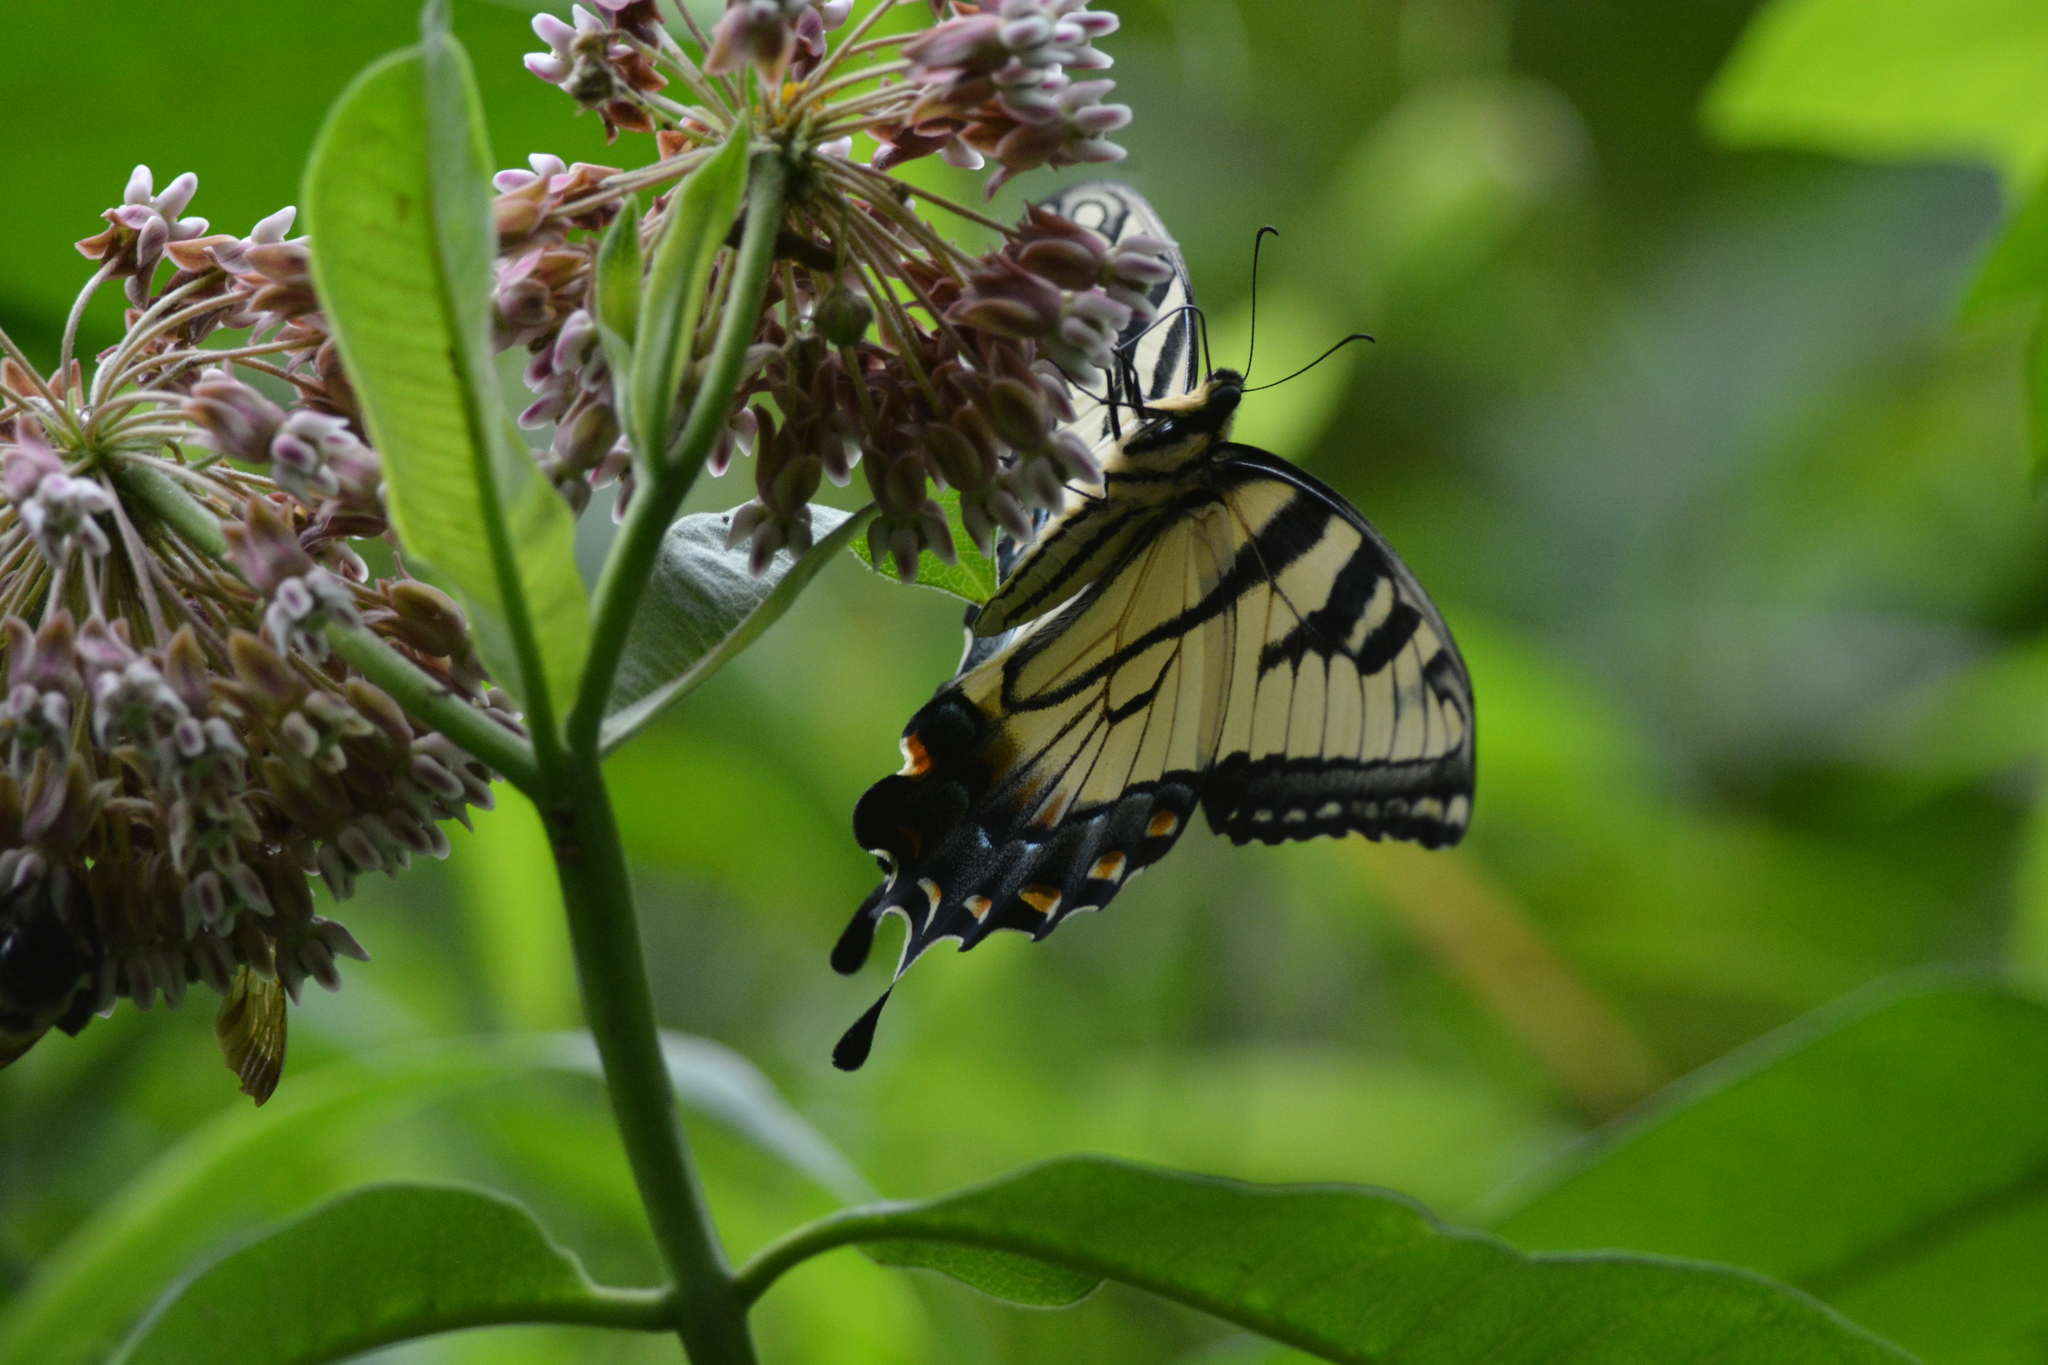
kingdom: Animalia
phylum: Arthropoda
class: Insecta
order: Lepidoptera
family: Papilionidae
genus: Papilio
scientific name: Papilio glaucus
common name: Tiger swallowtail
